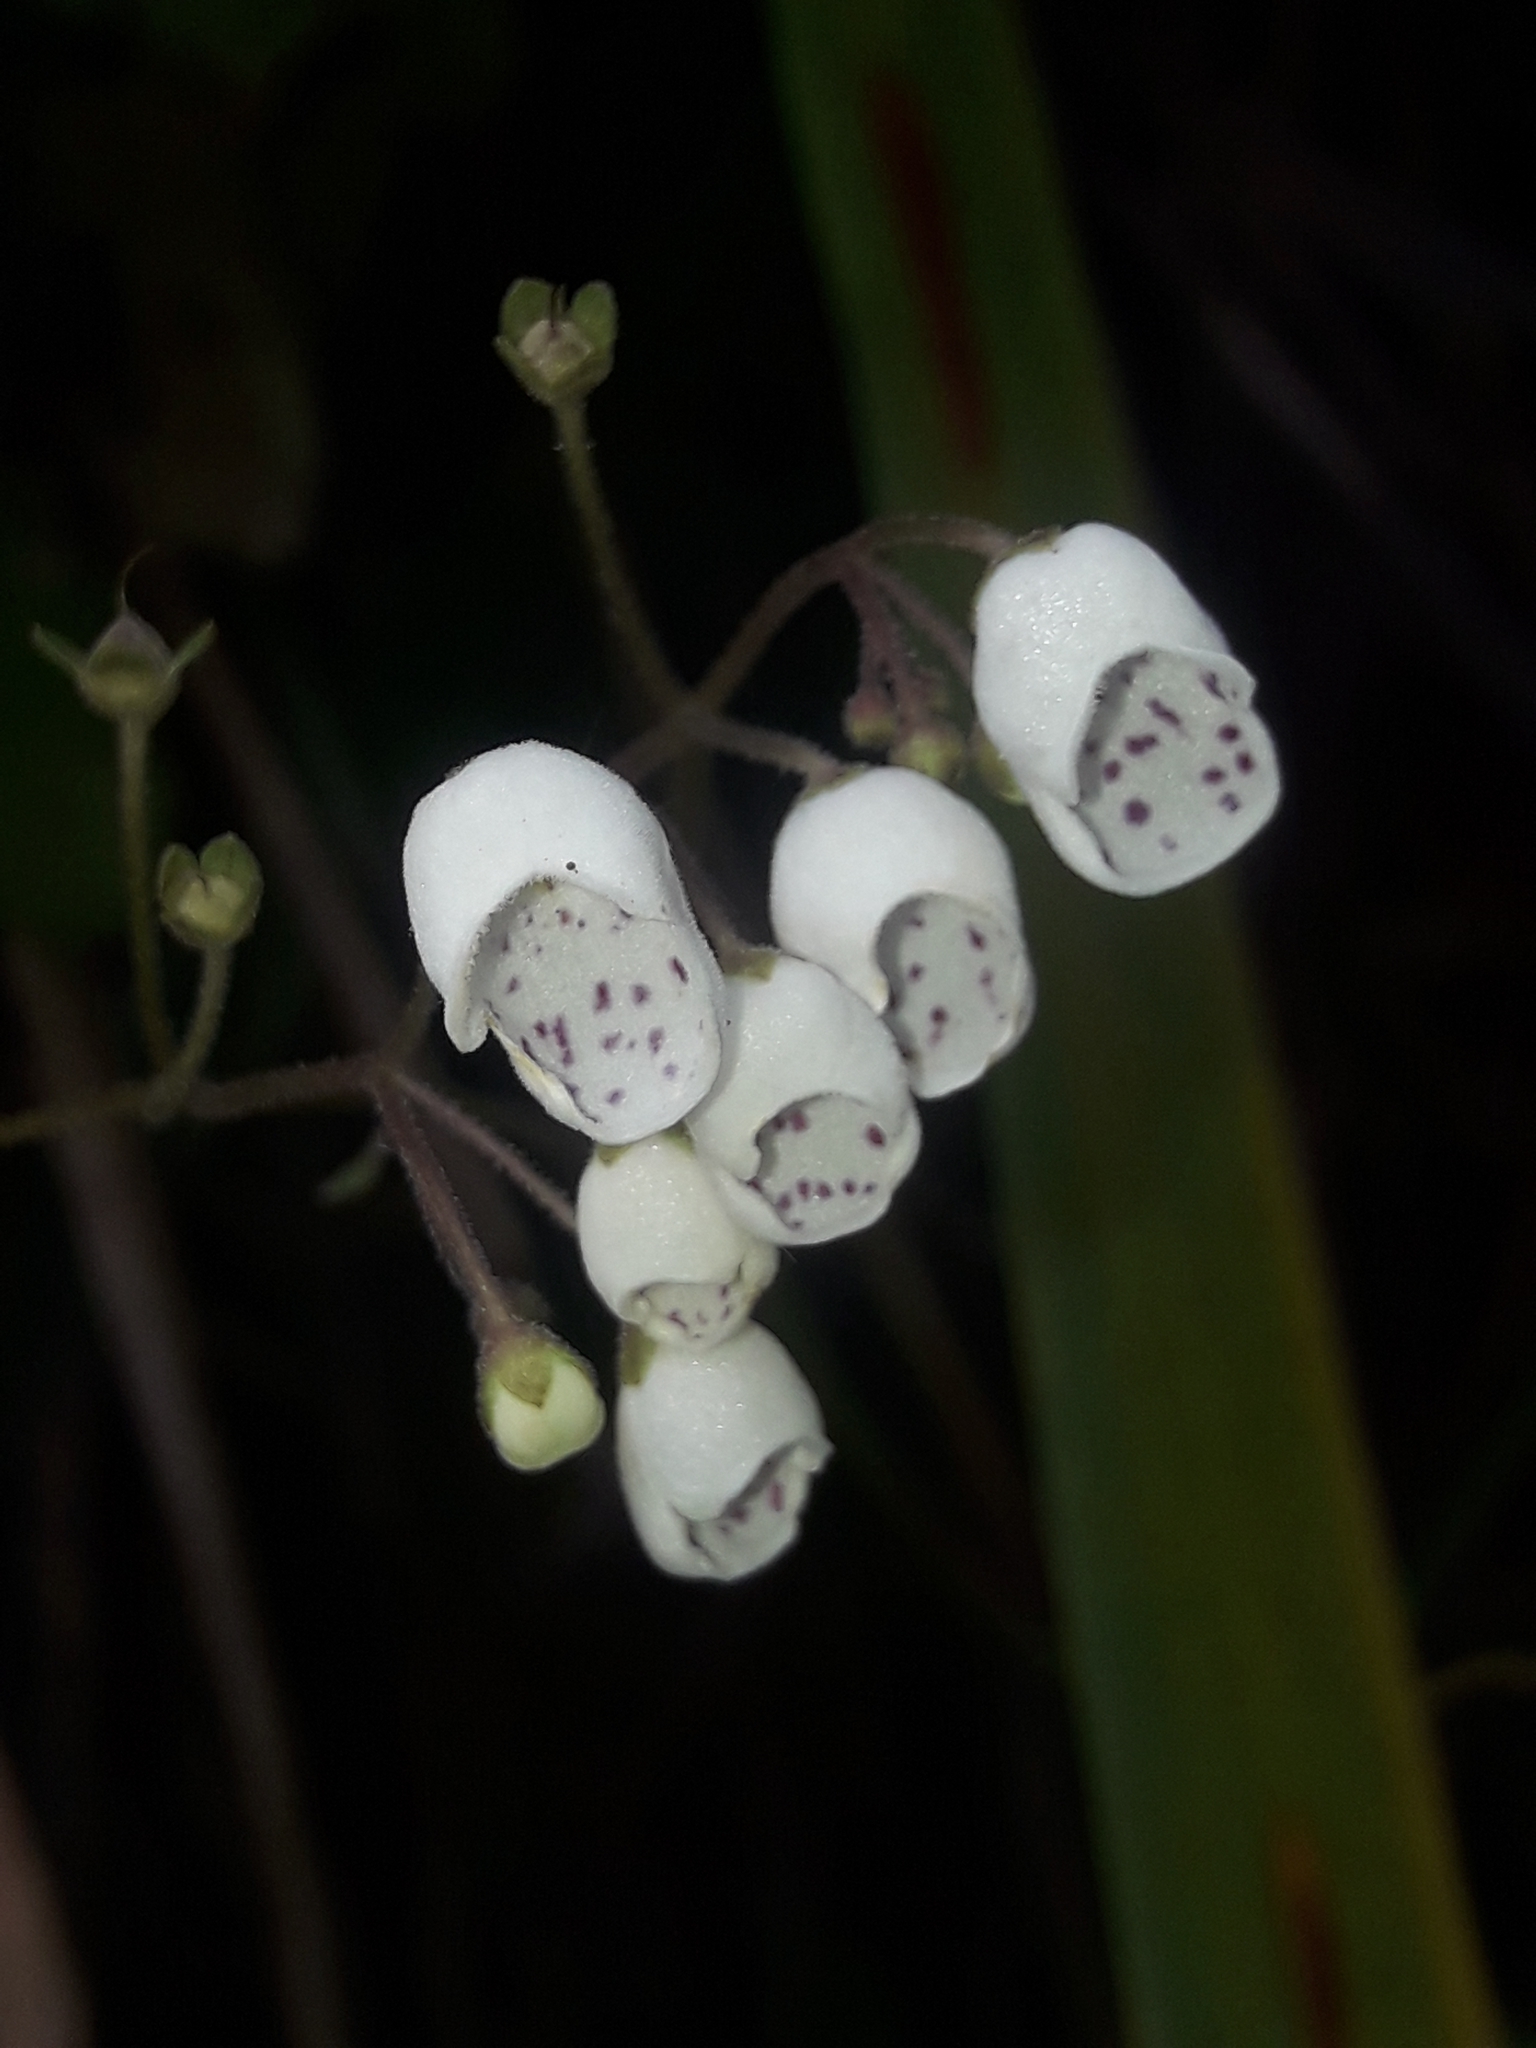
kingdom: Plantae
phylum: Tracheophyta
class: Magnoliopsida
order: Lamiales
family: Calceolariaceae
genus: Jovellana
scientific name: Jovellana sinclairii
